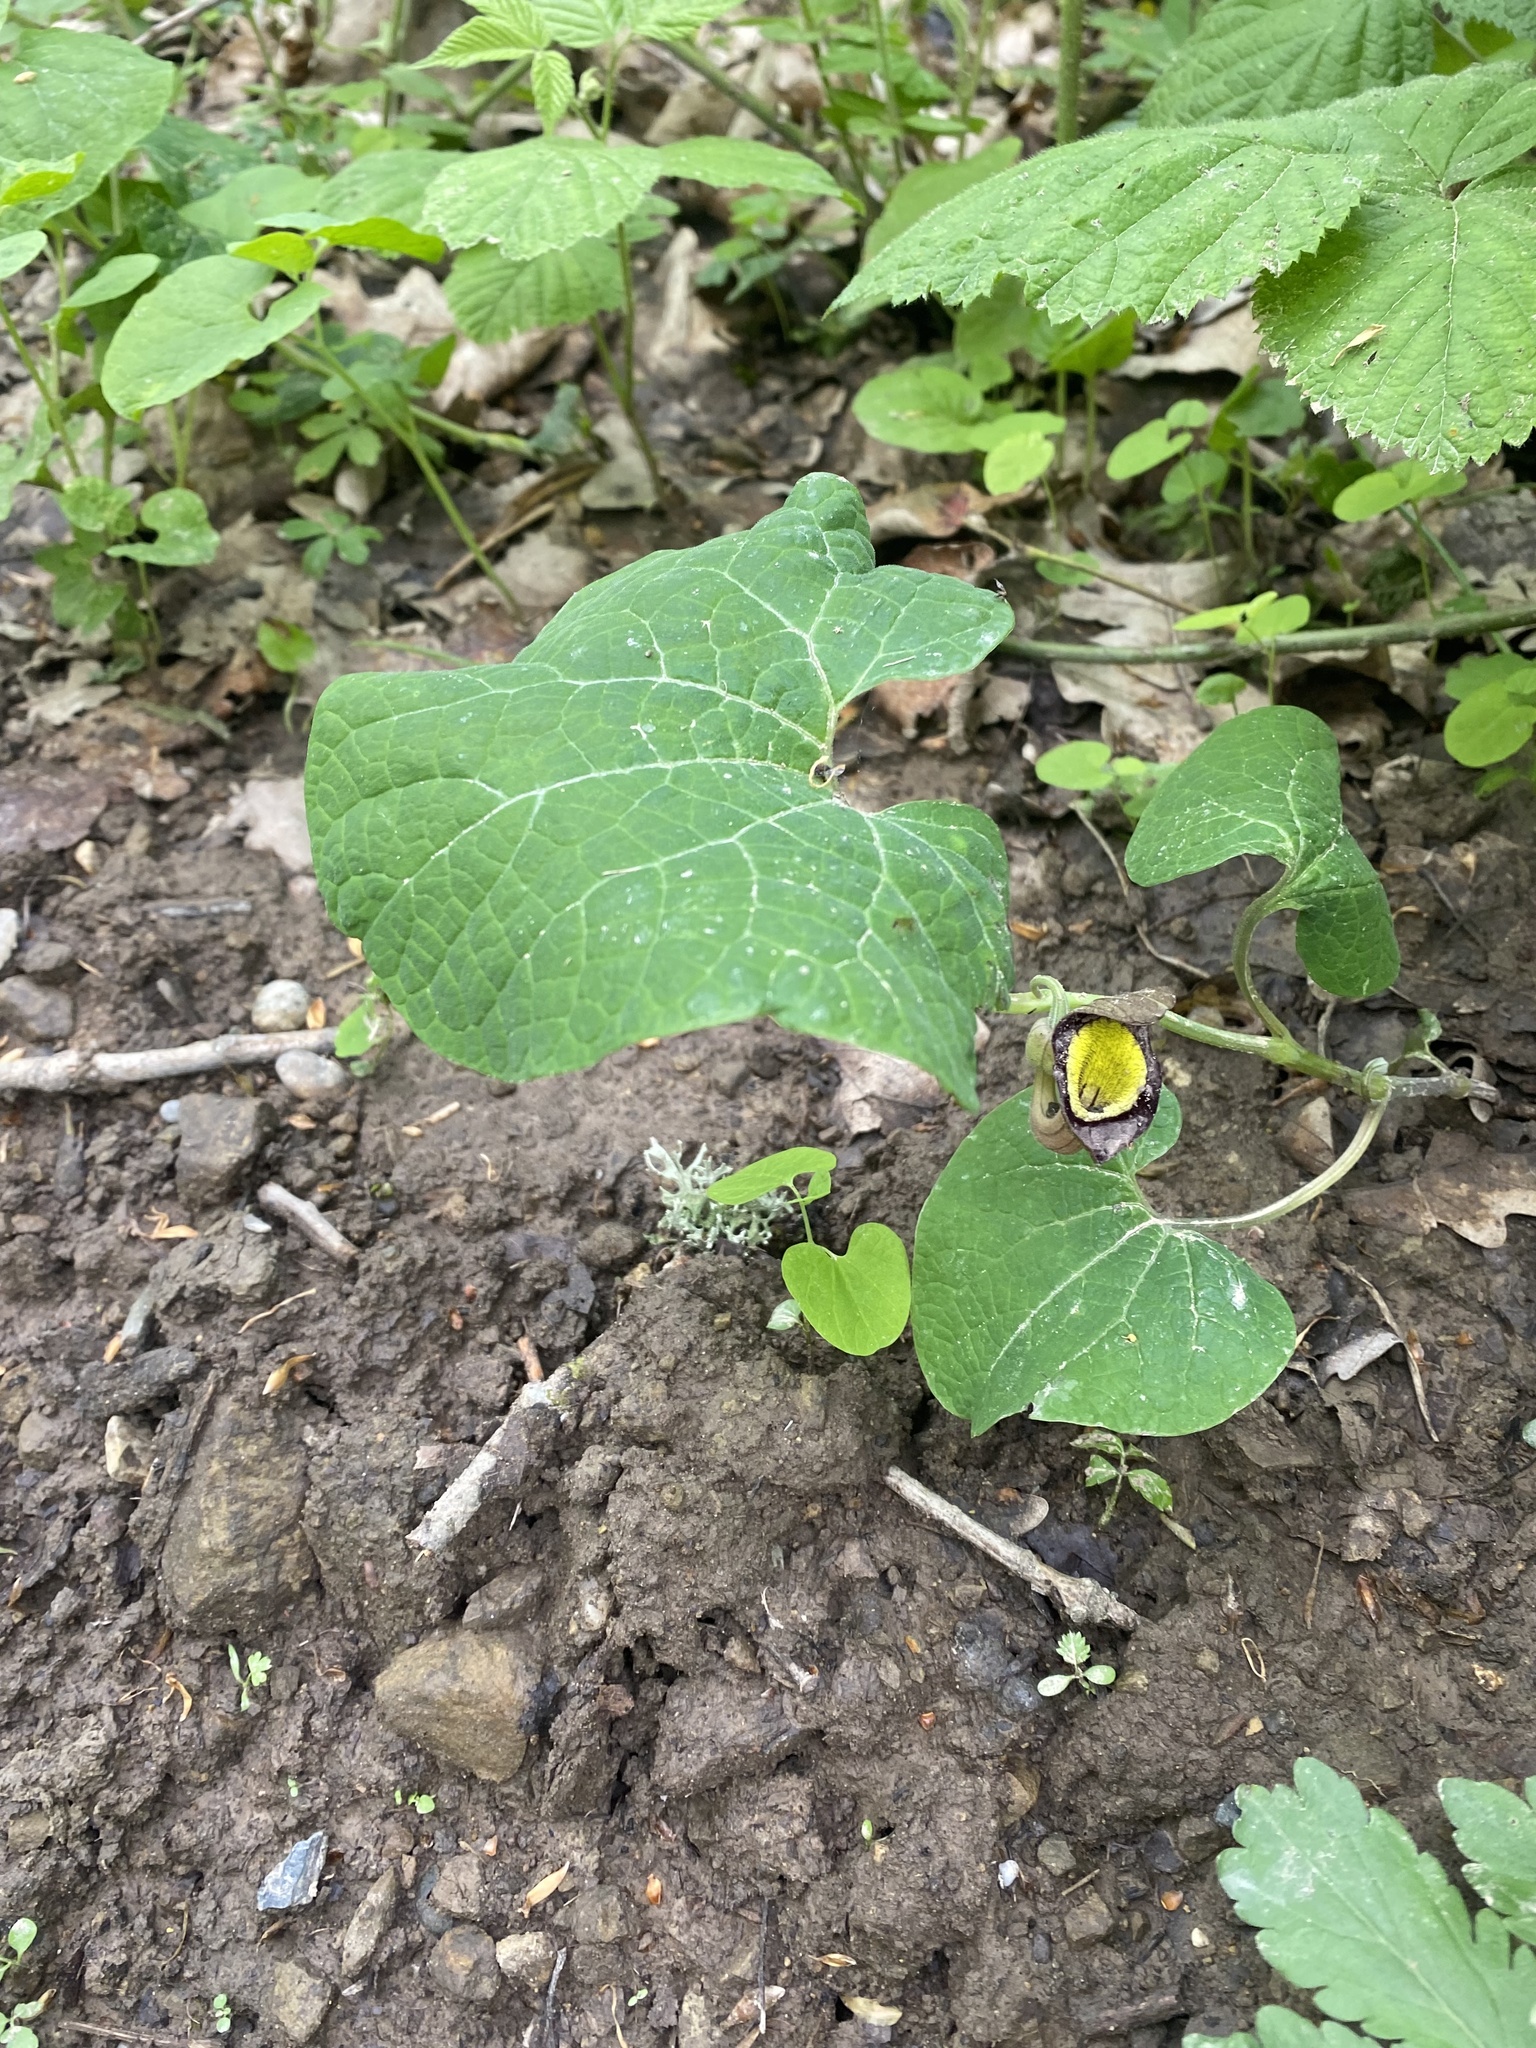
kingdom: Plantae
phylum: Tracheophyta
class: Magnoliopsida
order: Piperales
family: Aristolochiaceae
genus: Aristolochia
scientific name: Aristolochia steupii
